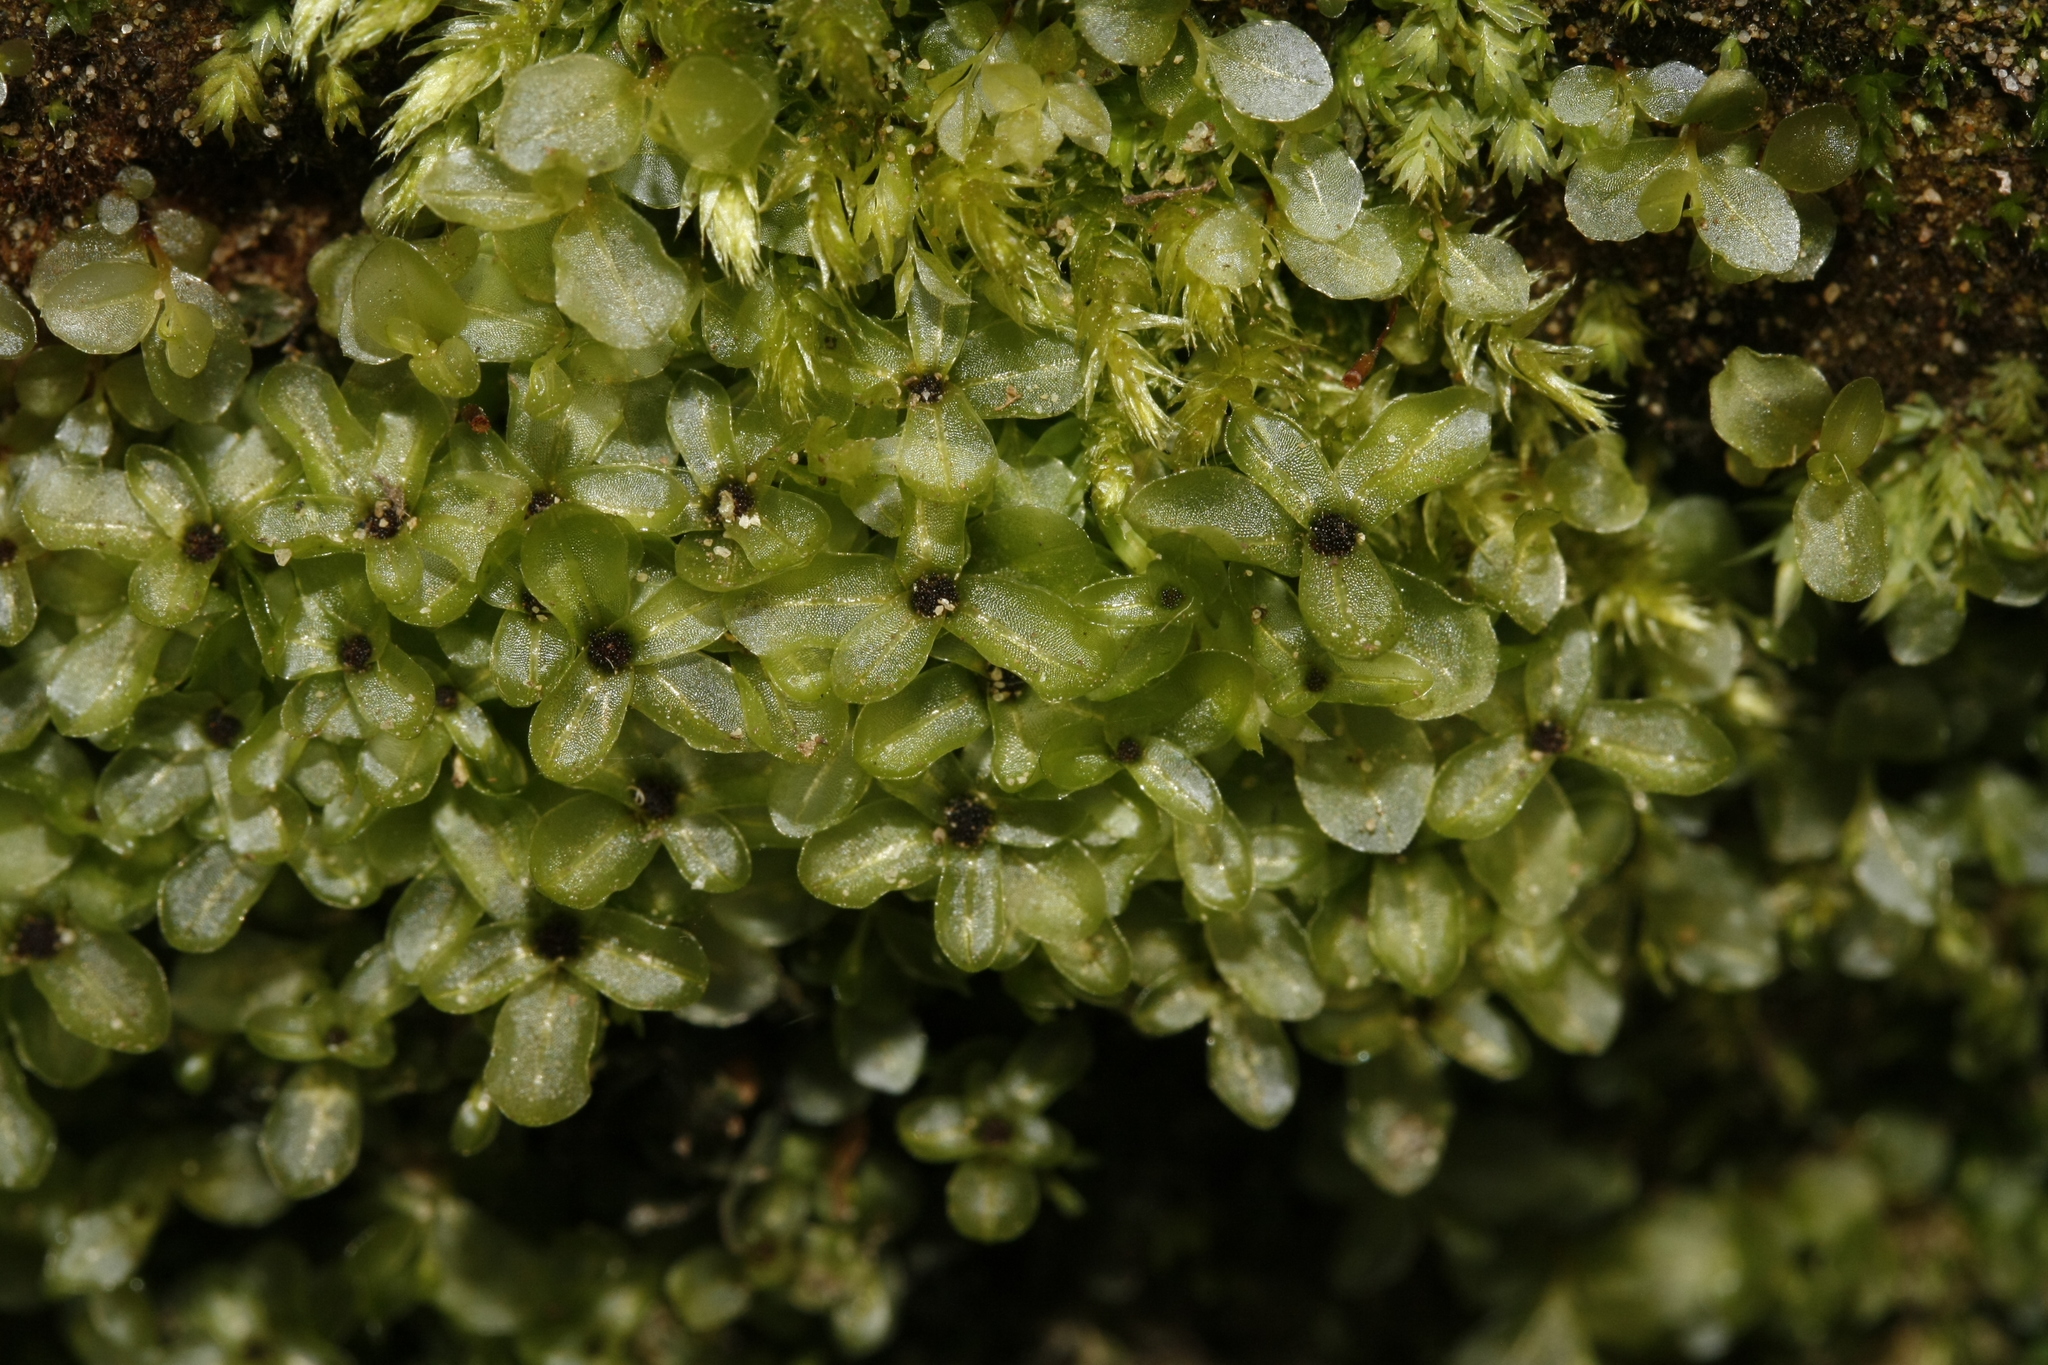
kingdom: Plantae
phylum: Bryophyta
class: Bryopsida
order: Bryales
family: Mniaceae
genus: Rhizomnium
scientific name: Rhizomnium punctatum
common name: Dotted leafy moss
